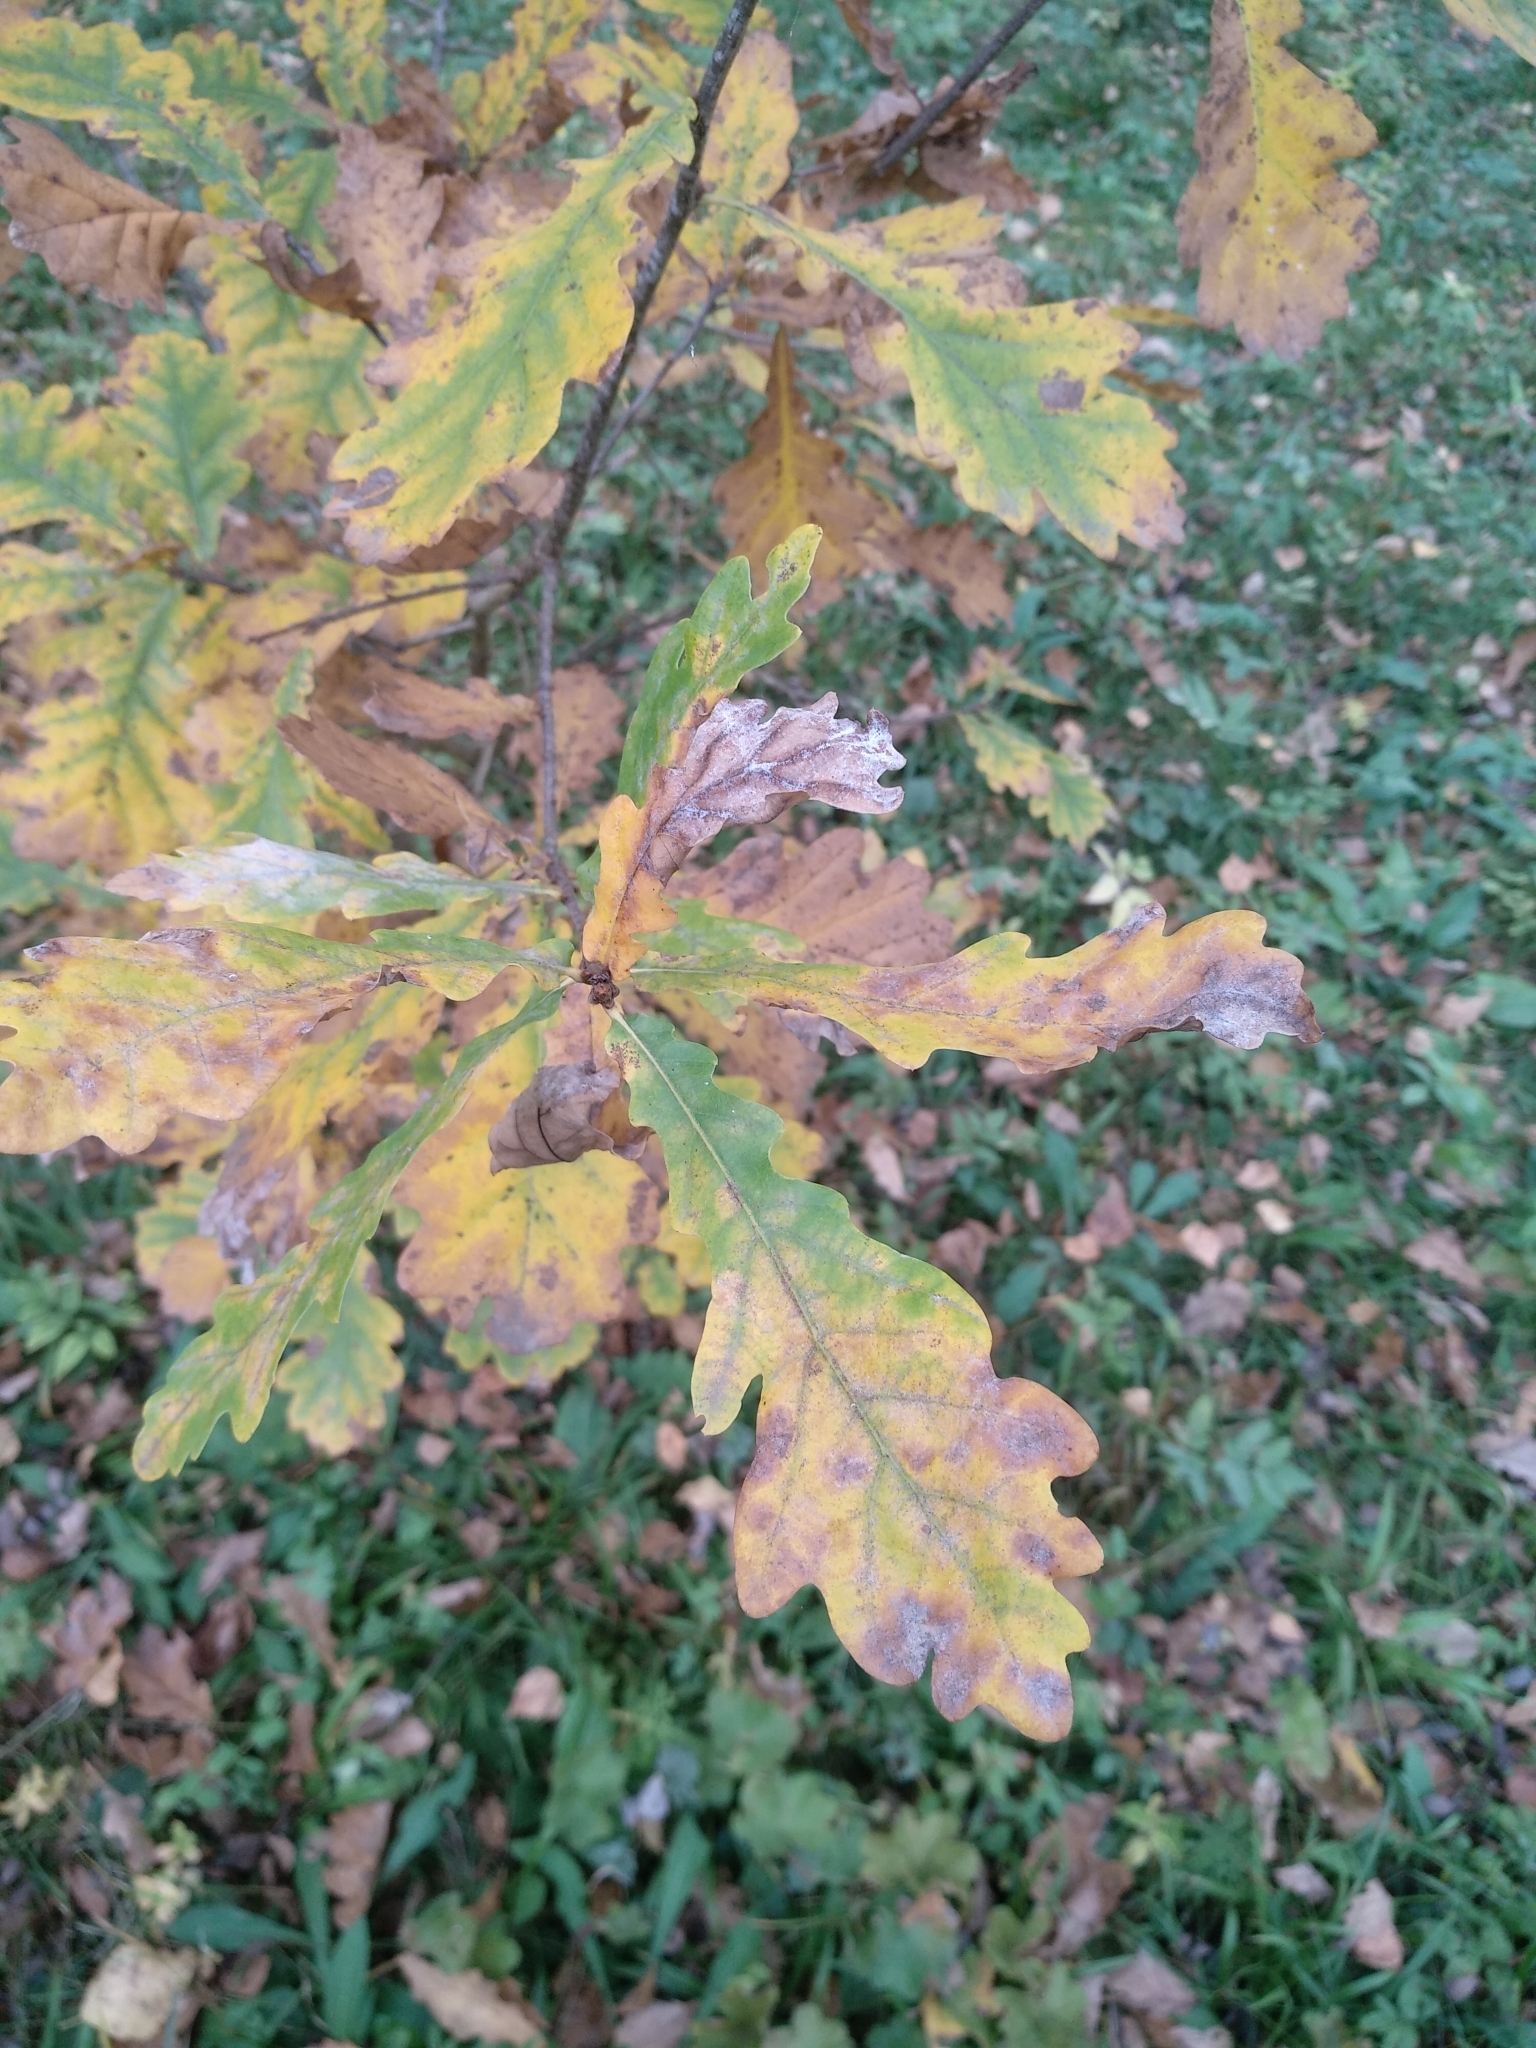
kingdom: Plantae
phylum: Tracheophyta
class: Magnoliopsida
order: Fagales
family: Fagaceae
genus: Quercus
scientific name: Quercus robur
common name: Pedunculate oak
